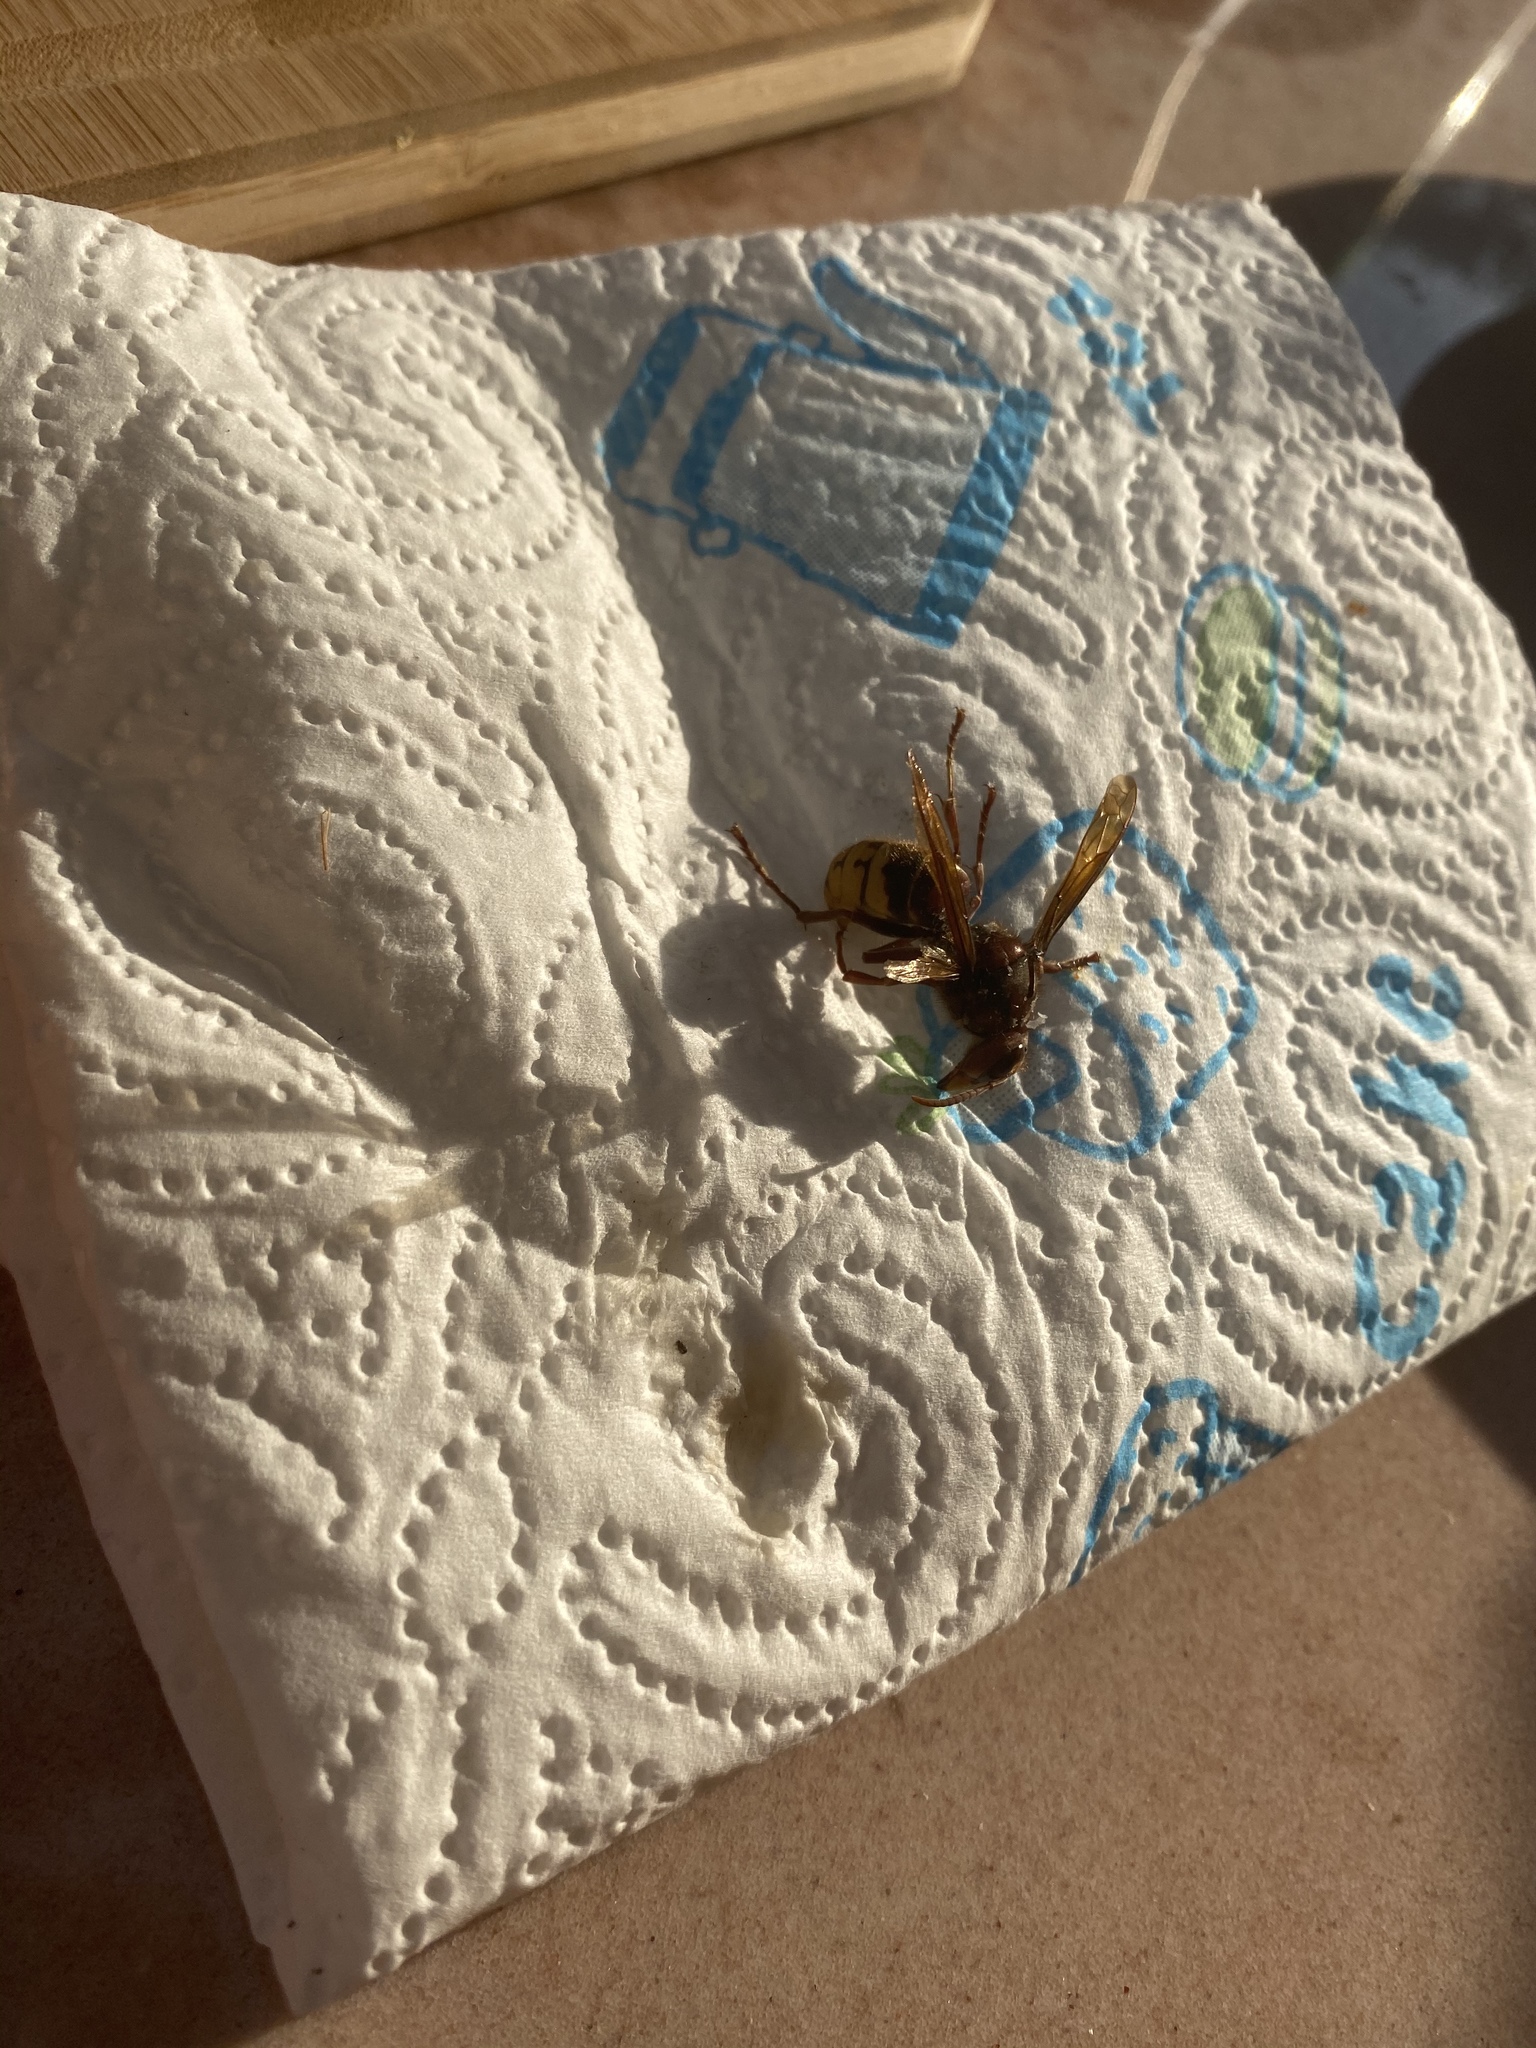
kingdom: Animalia
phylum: Arthropoda
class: Insecta
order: Hymenoptera
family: Vespidae
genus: Vespa
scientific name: Vespa crabro
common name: Hornet
